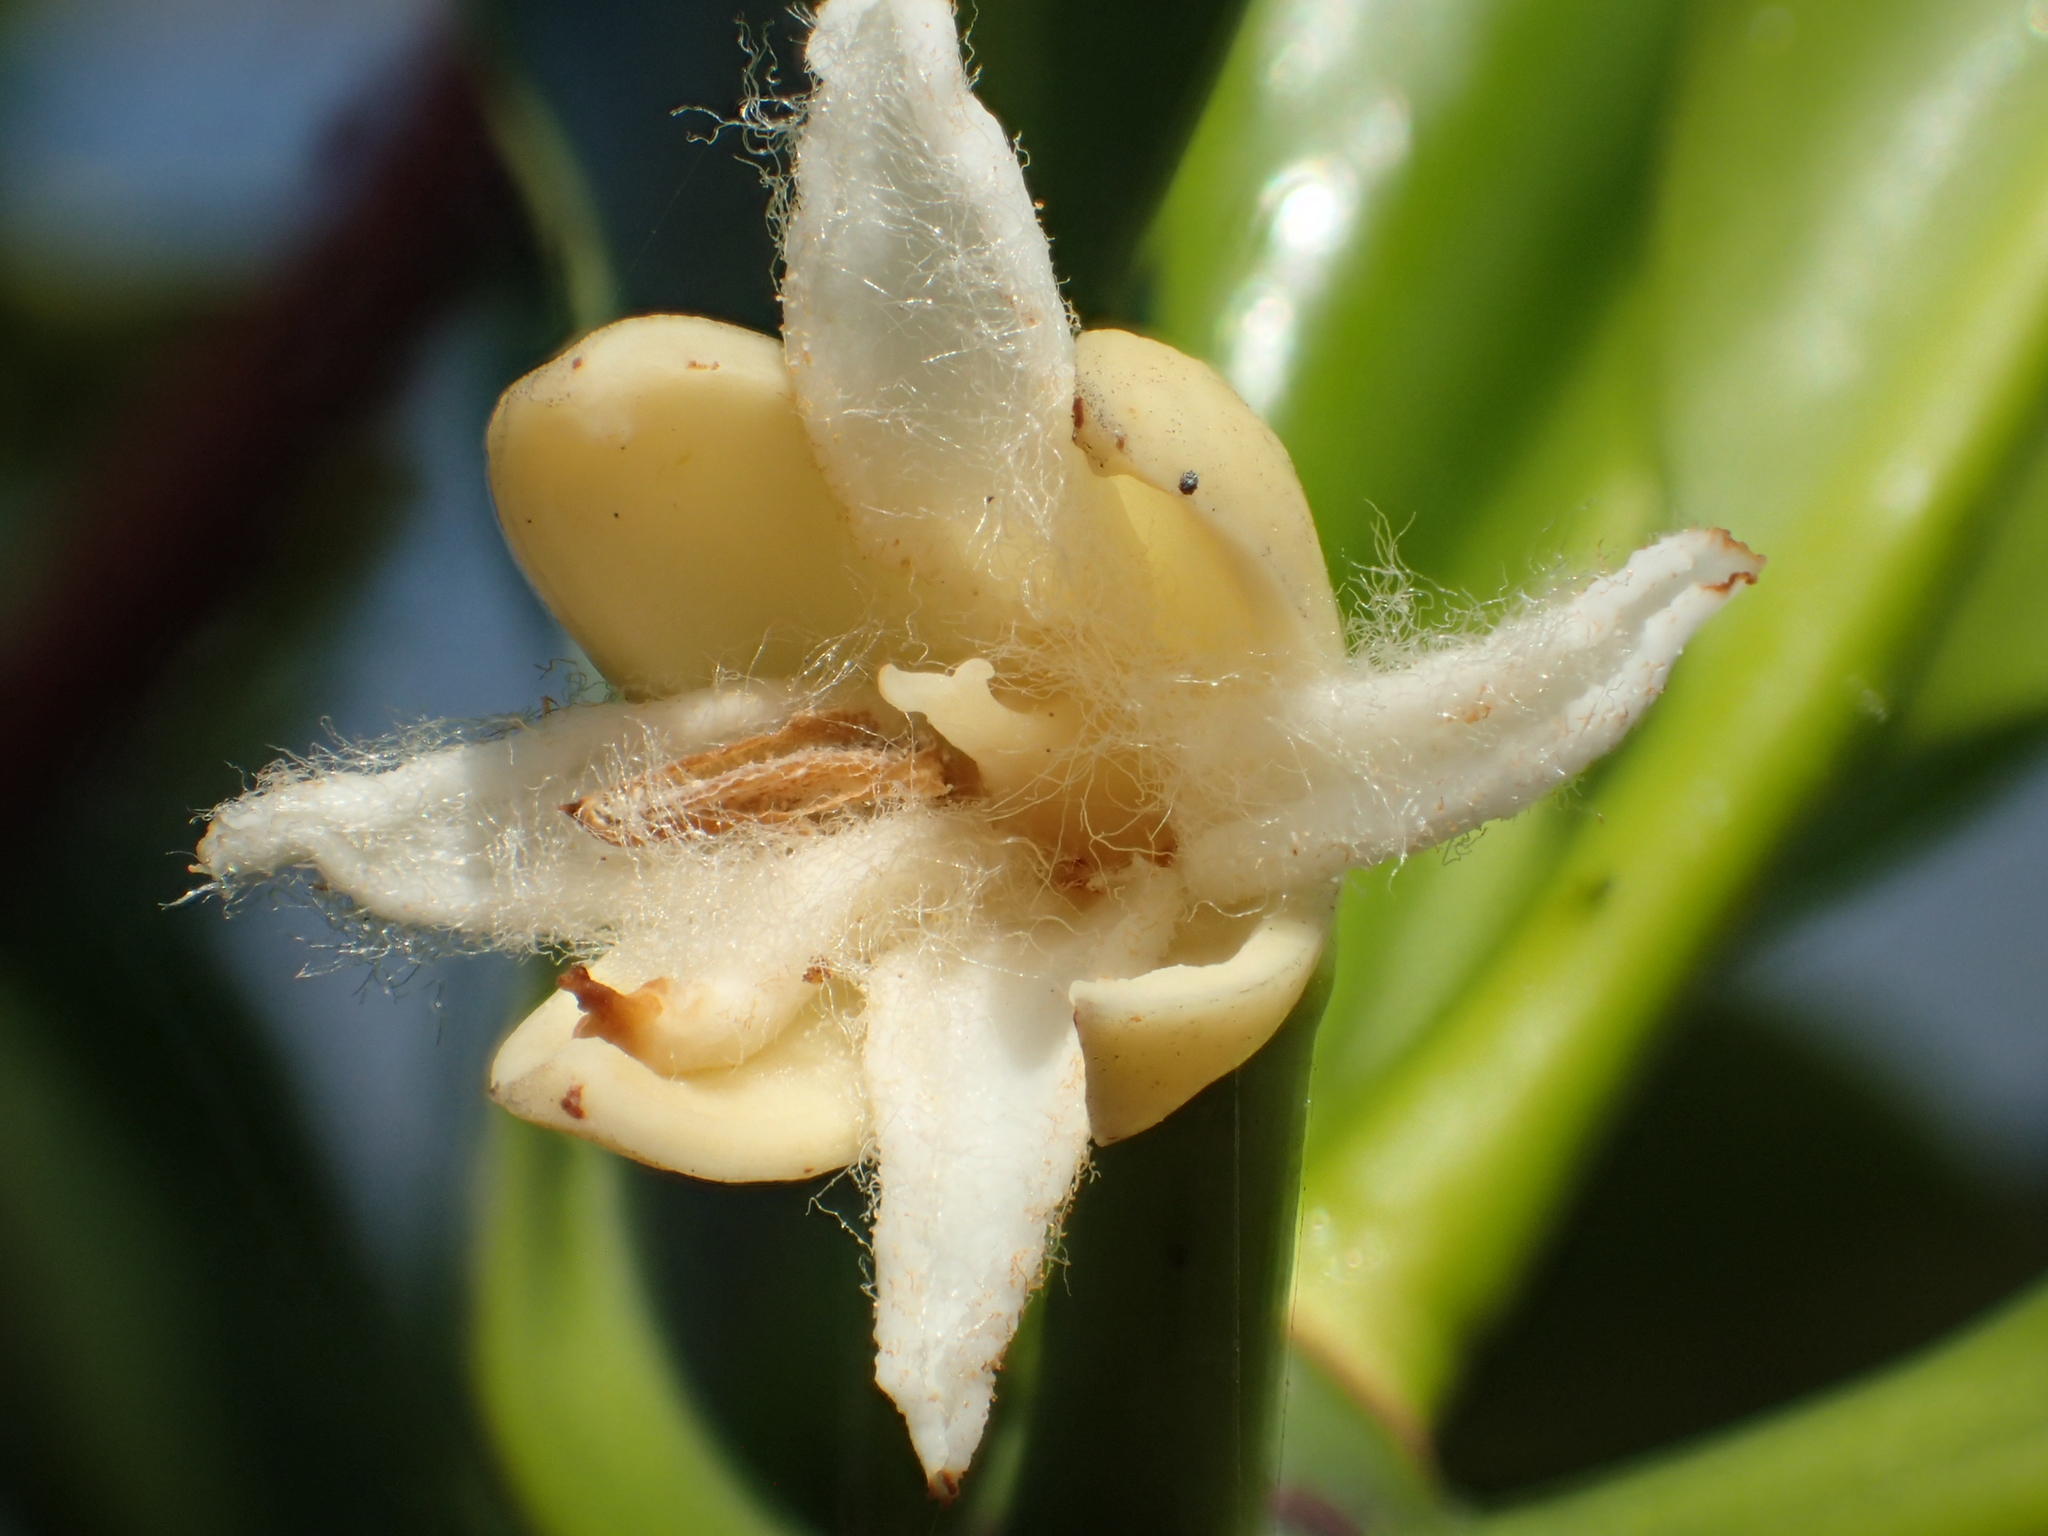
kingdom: Plantae
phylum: Tracheophyta
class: Magnoliopsida
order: Malpighiales
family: Rhizophoraceae
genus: Rhizophora
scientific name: Rhizophora stylosa
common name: Red mangrove
